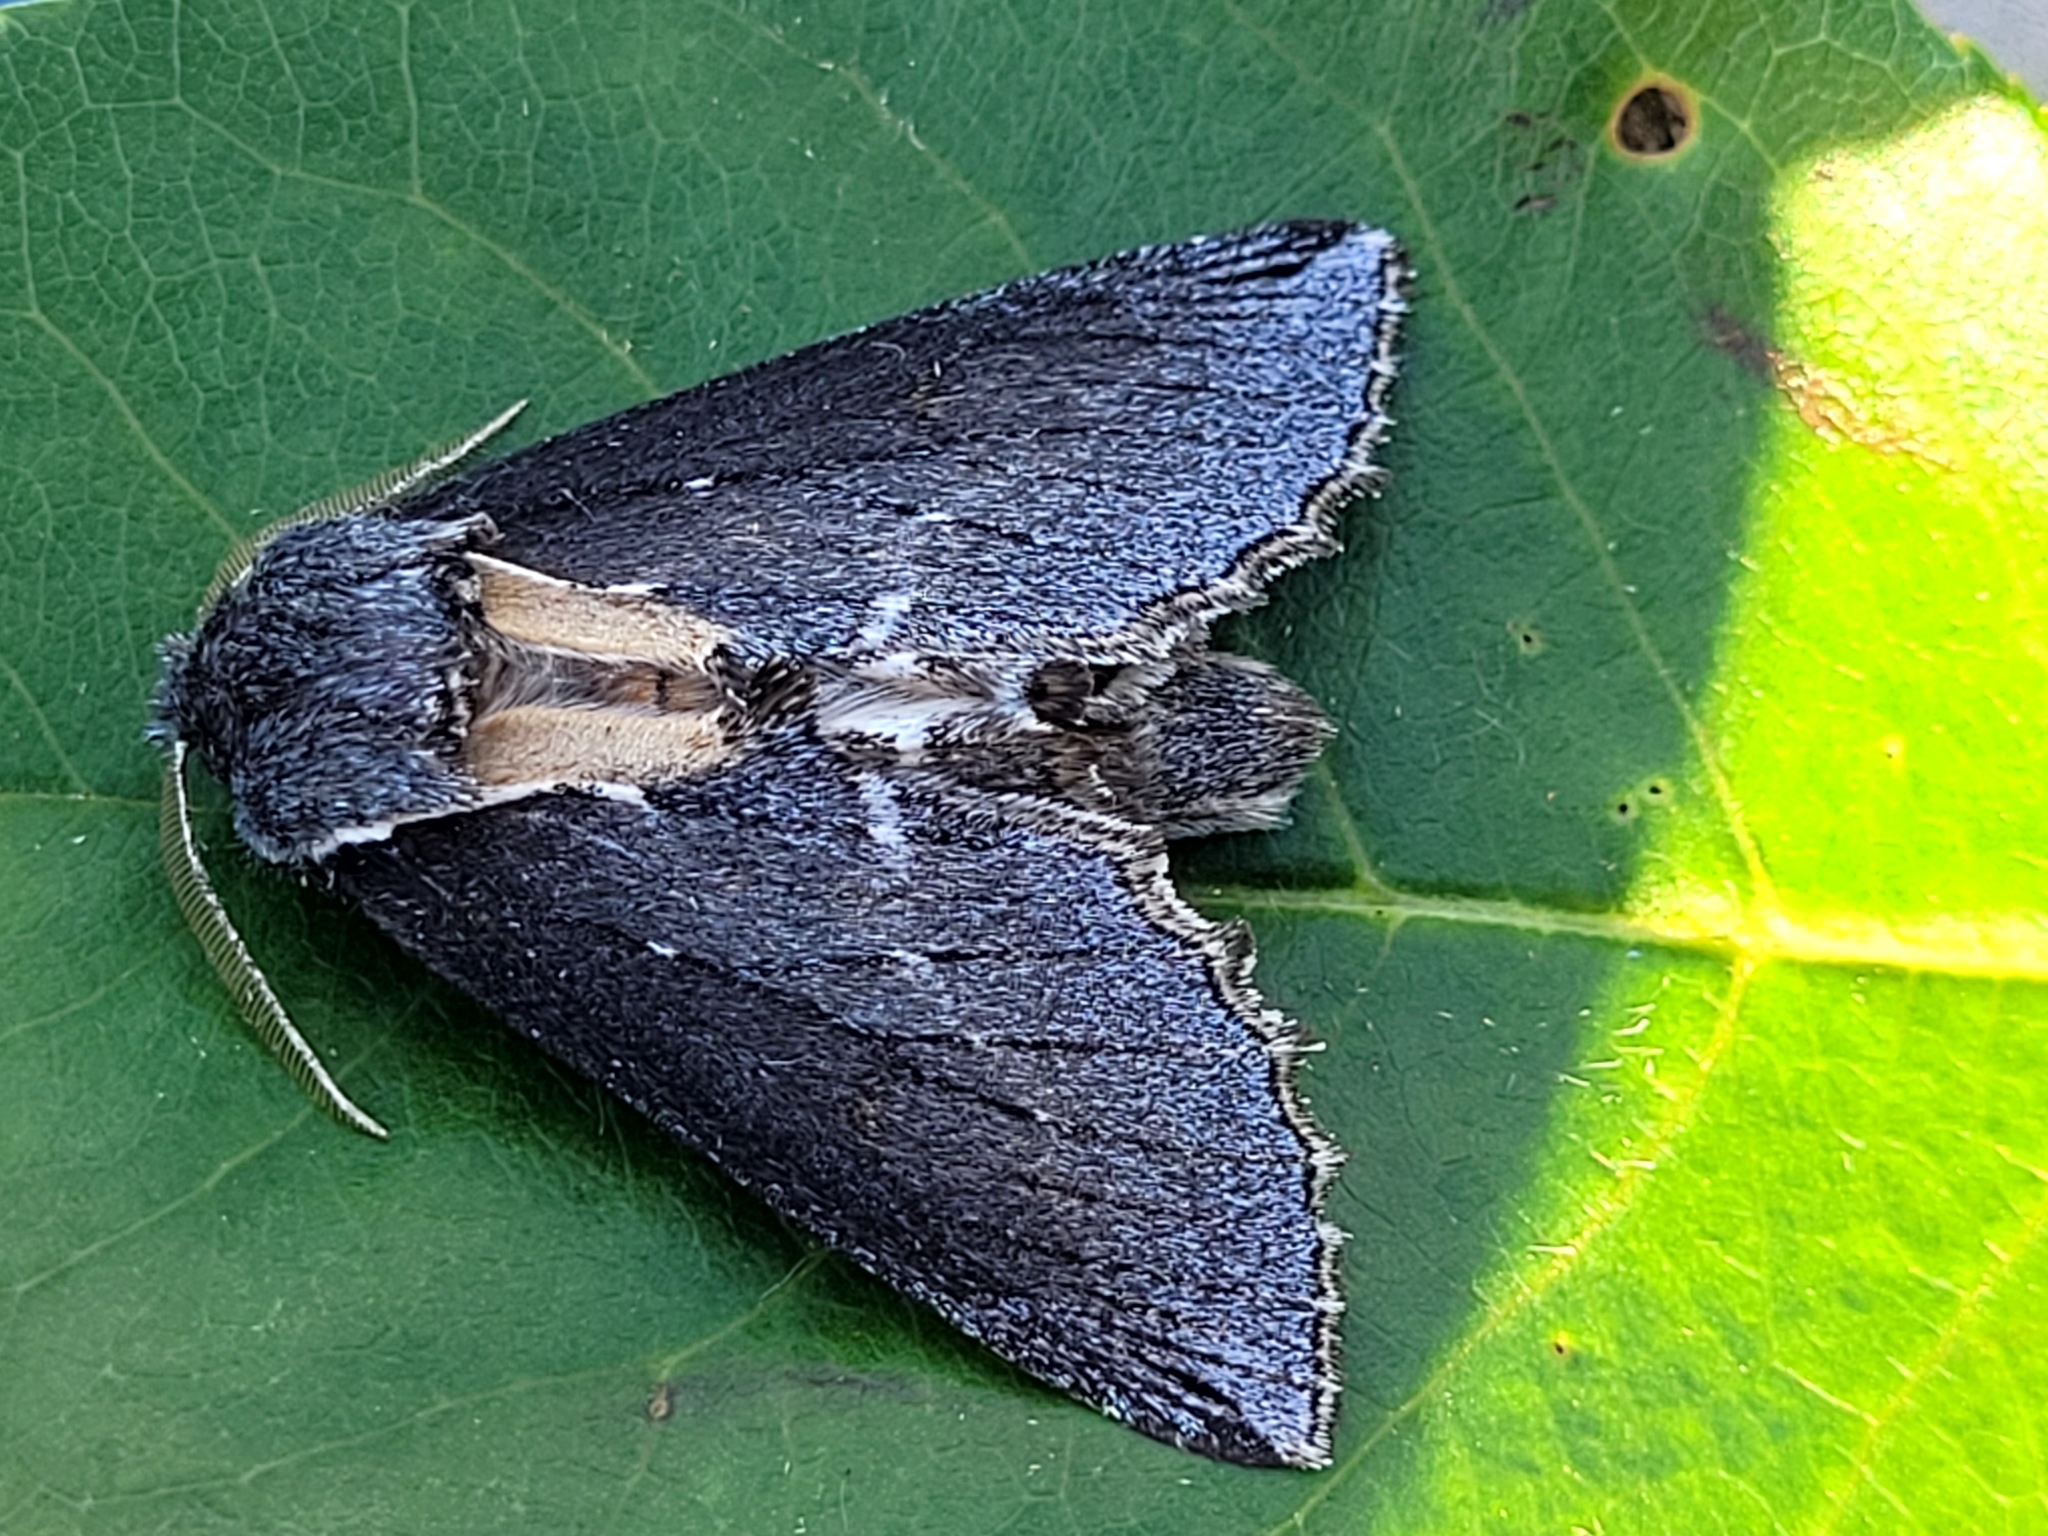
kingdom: Animalia
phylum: Arthropoda
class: Insecta
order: Lepidoptera
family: Notodontidae
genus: Pheosidea
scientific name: Pheosidea elegans
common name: Elegant prominent
